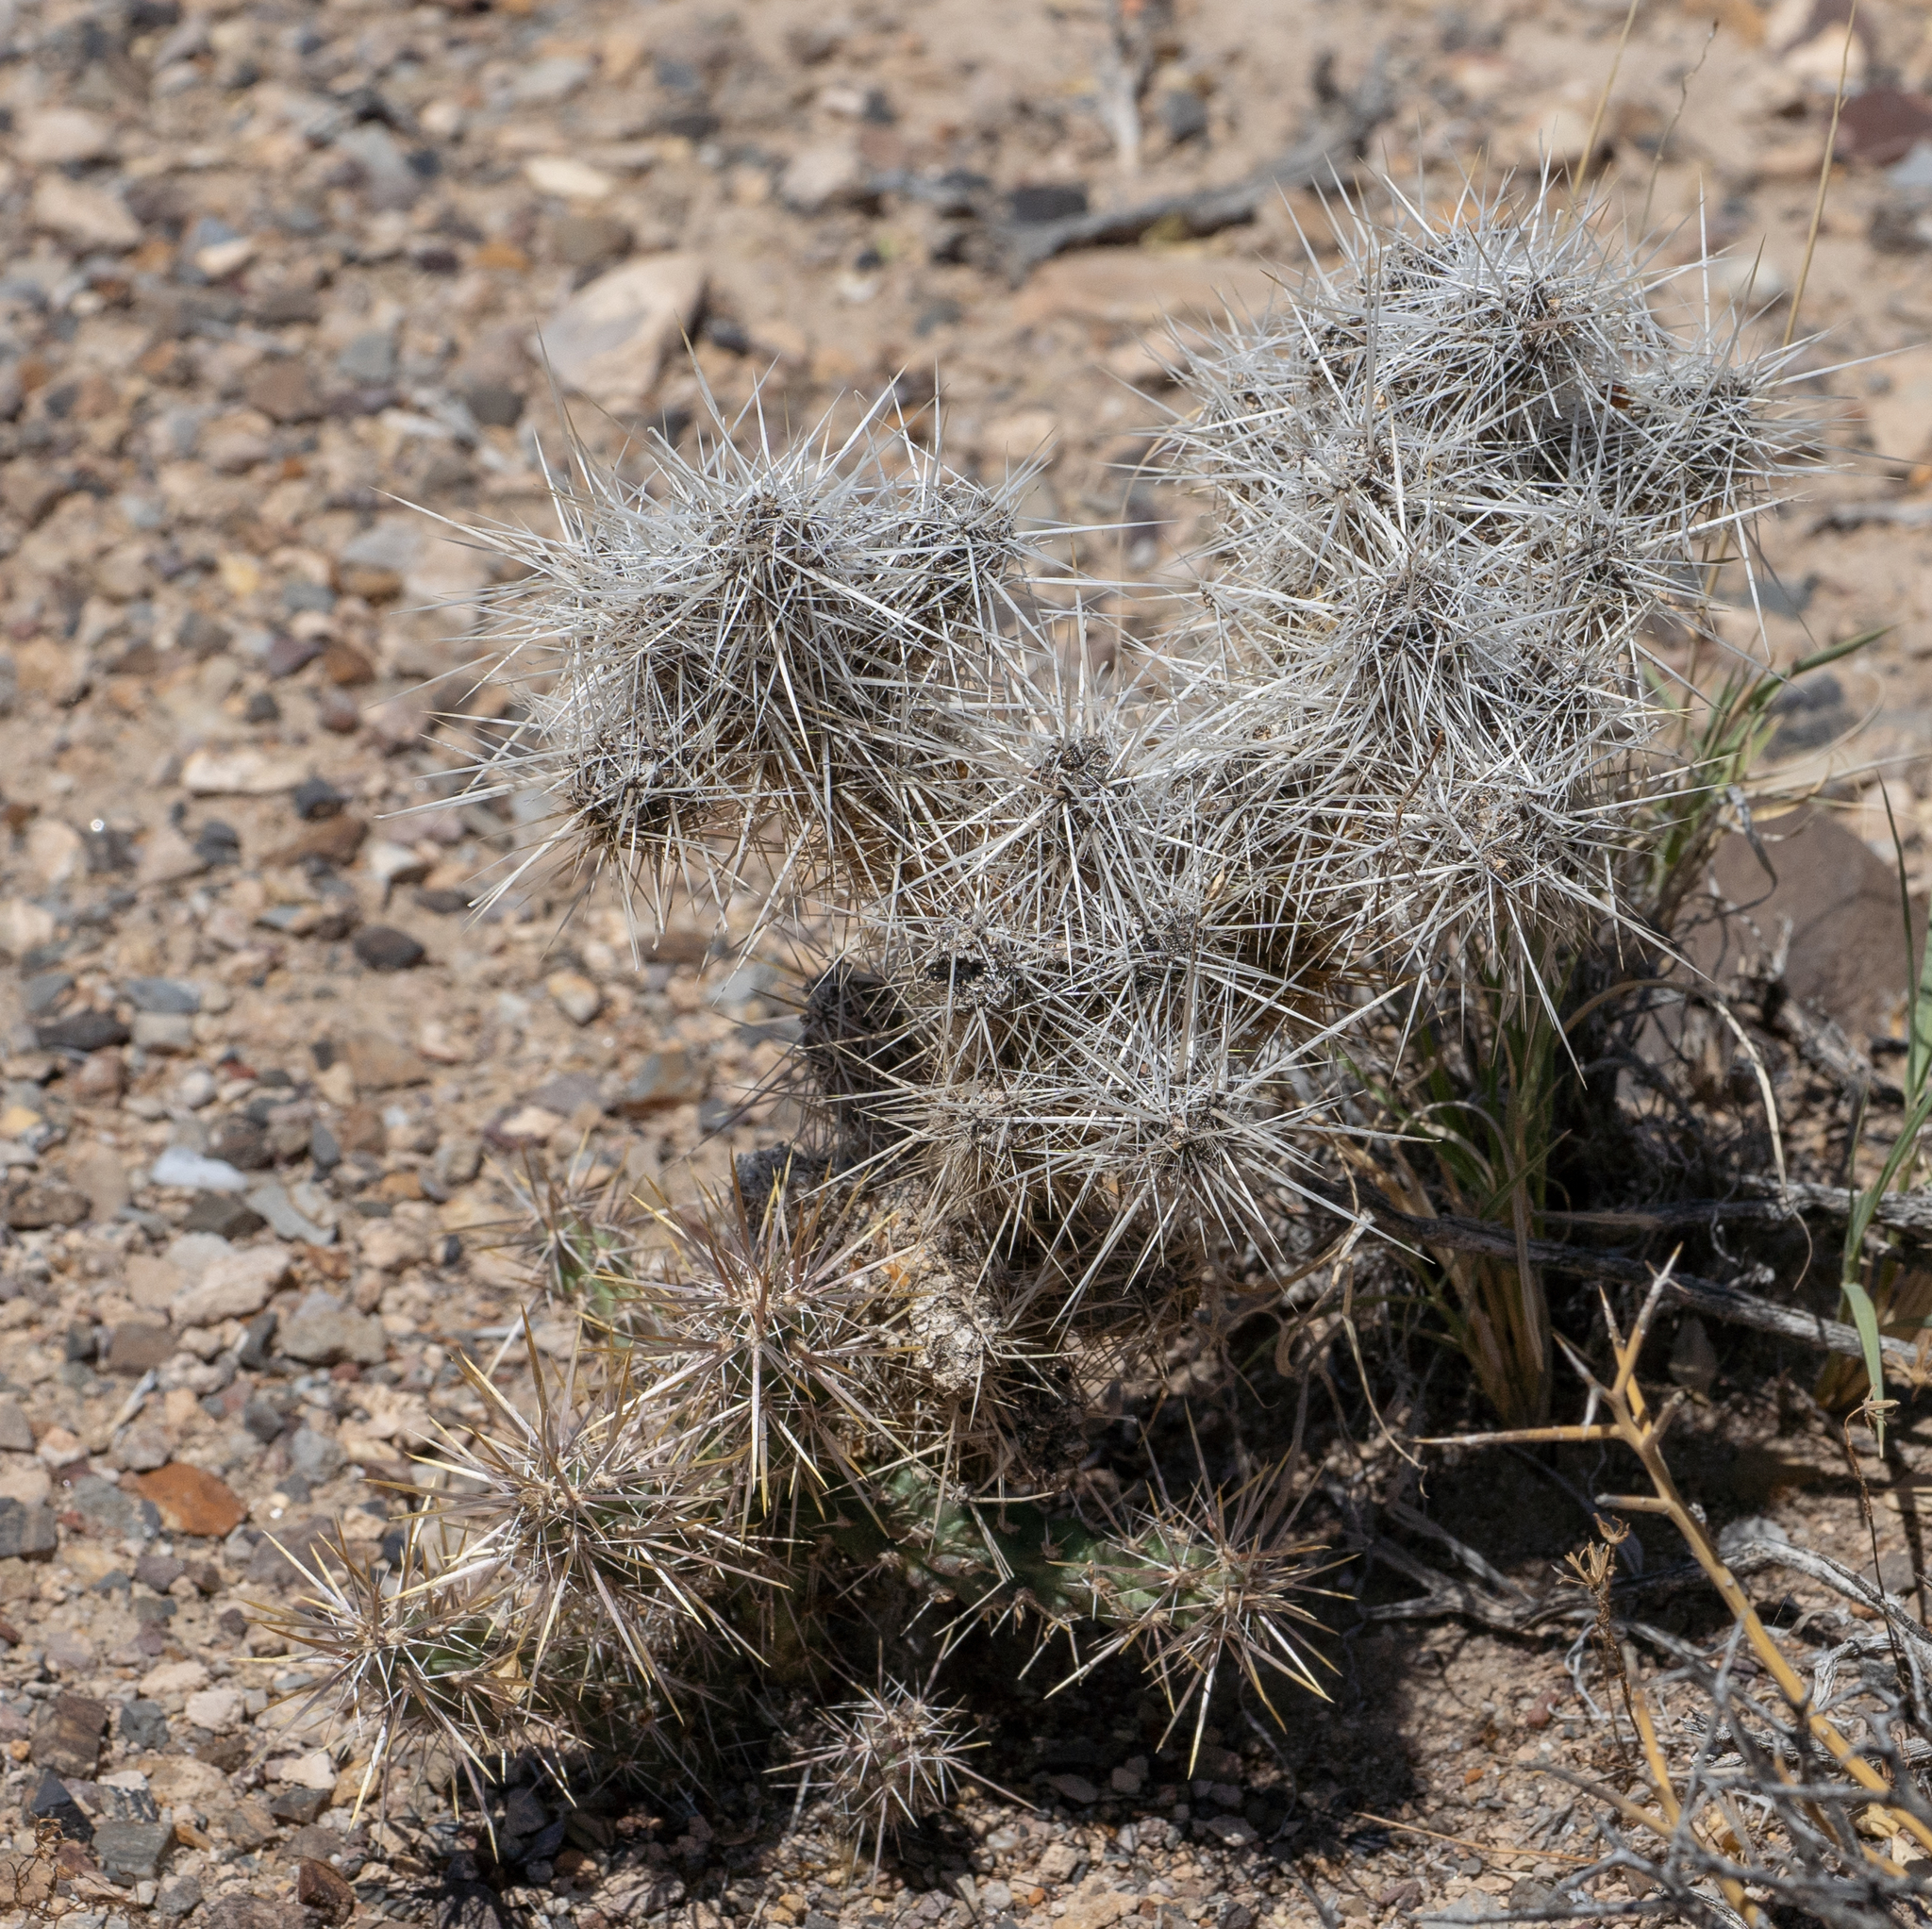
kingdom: Plantae
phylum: Tracheophyta
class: Magnoliopsida
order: Caryophyllales
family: Cactaceae
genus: Cylindropuntia
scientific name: Cylindropuntia echinocarpa
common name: Ground cholla
